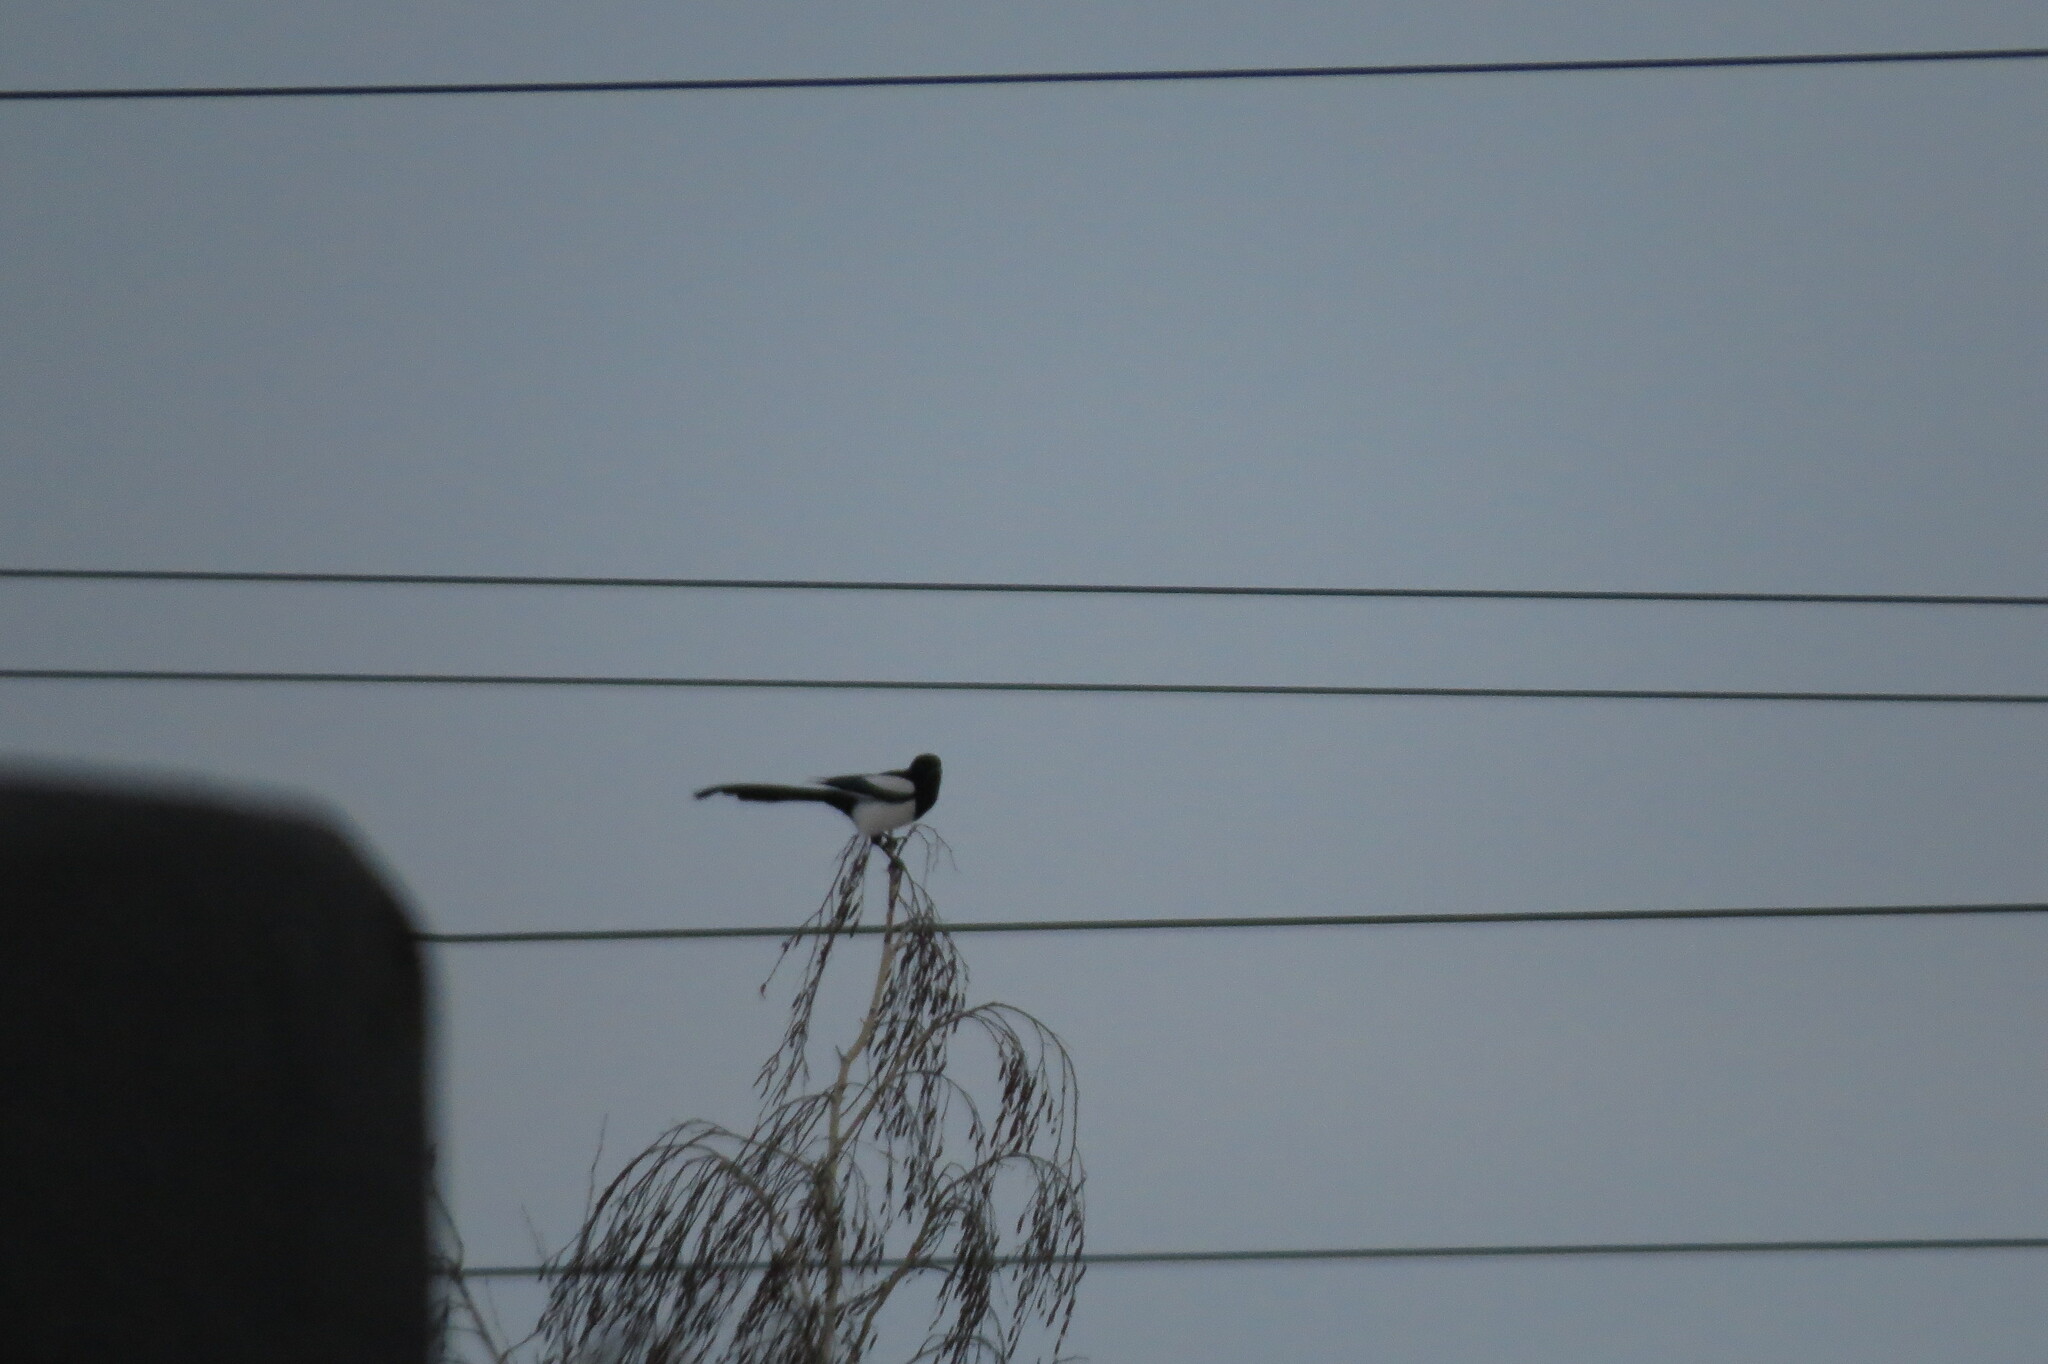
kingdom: Animalia
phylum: Chordata
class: Aves
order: Passeriformes
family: Corvidae
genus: Pica
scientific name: Pica pica
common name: Eurasian magpie
